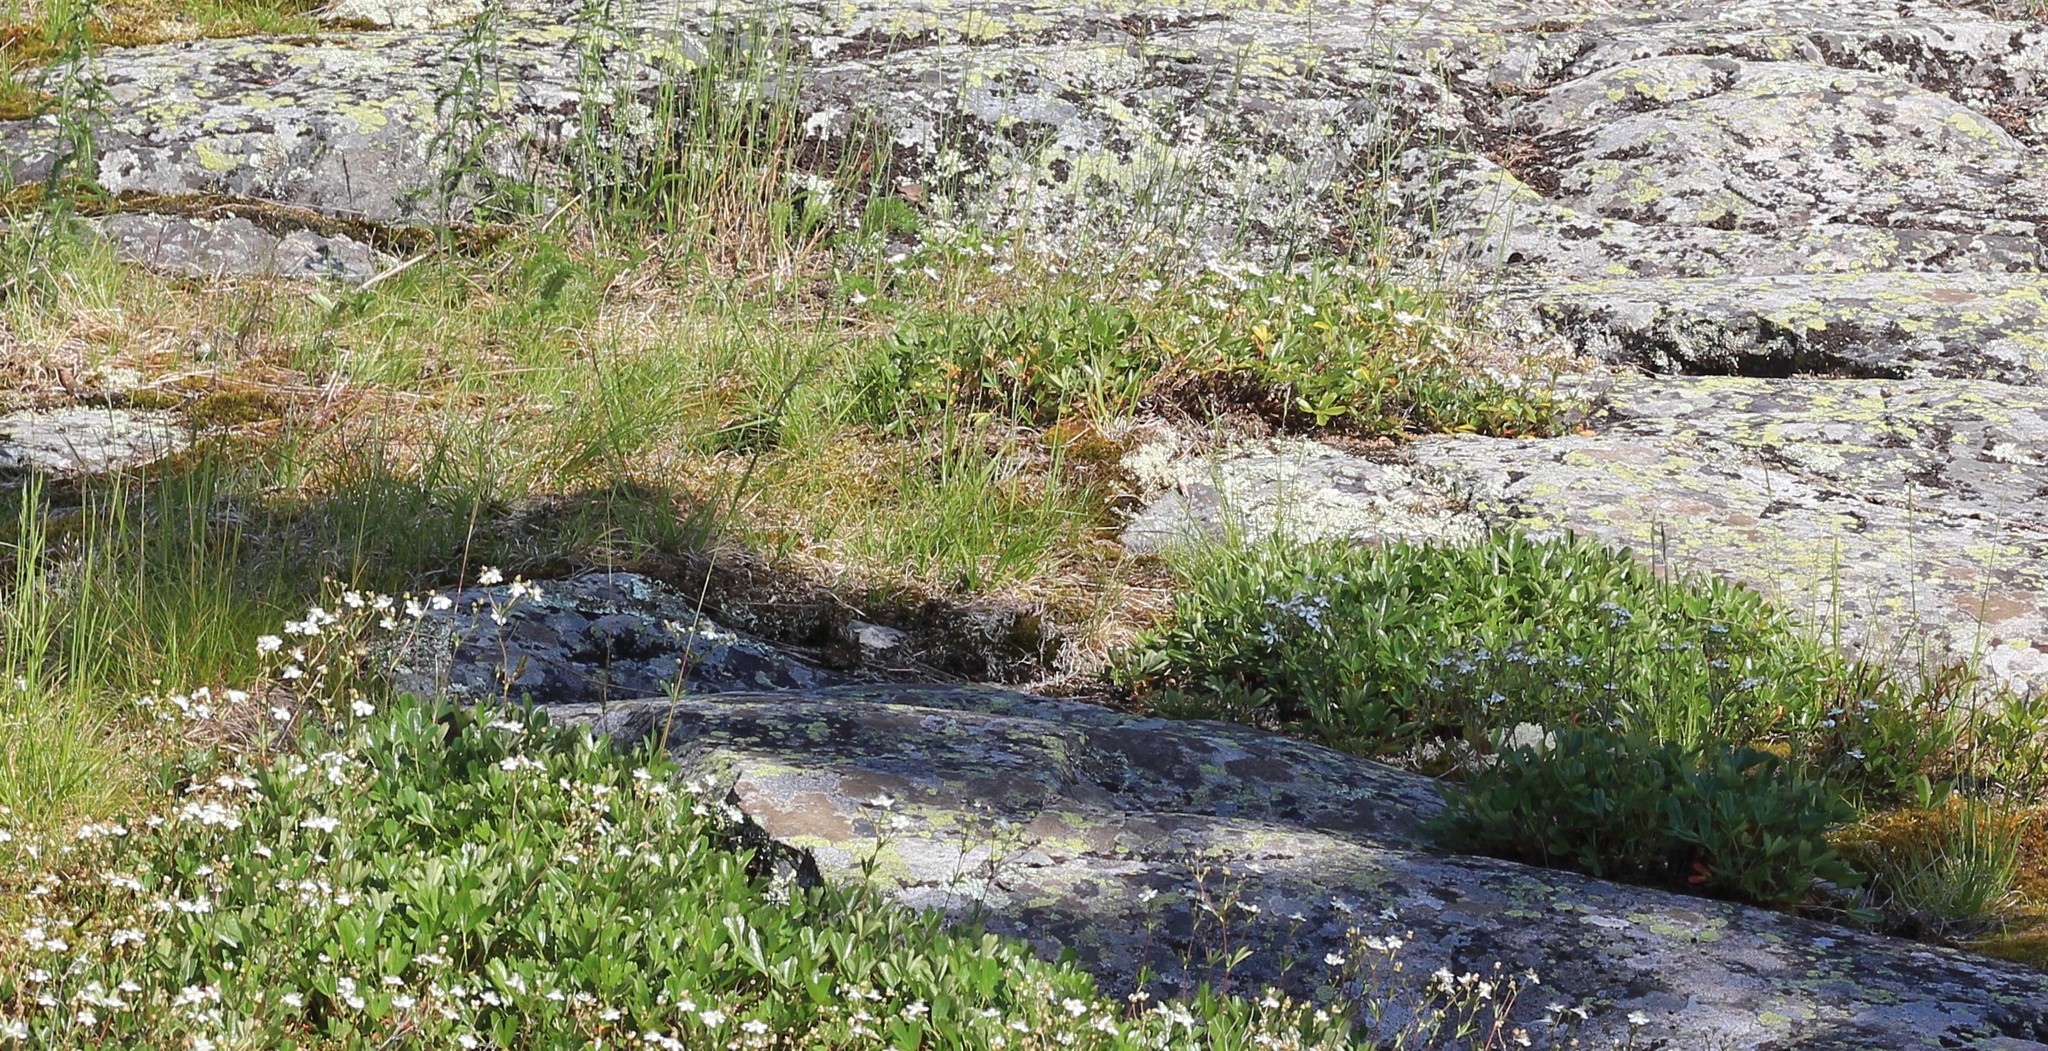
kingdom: Plantae
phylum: Tracheophyta
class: Magnoliopsida
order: Rosales
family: Rosaceae
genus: Sibbaldia
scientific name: Sibbaldia tridentata
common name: Three-toothed cinquefoil
